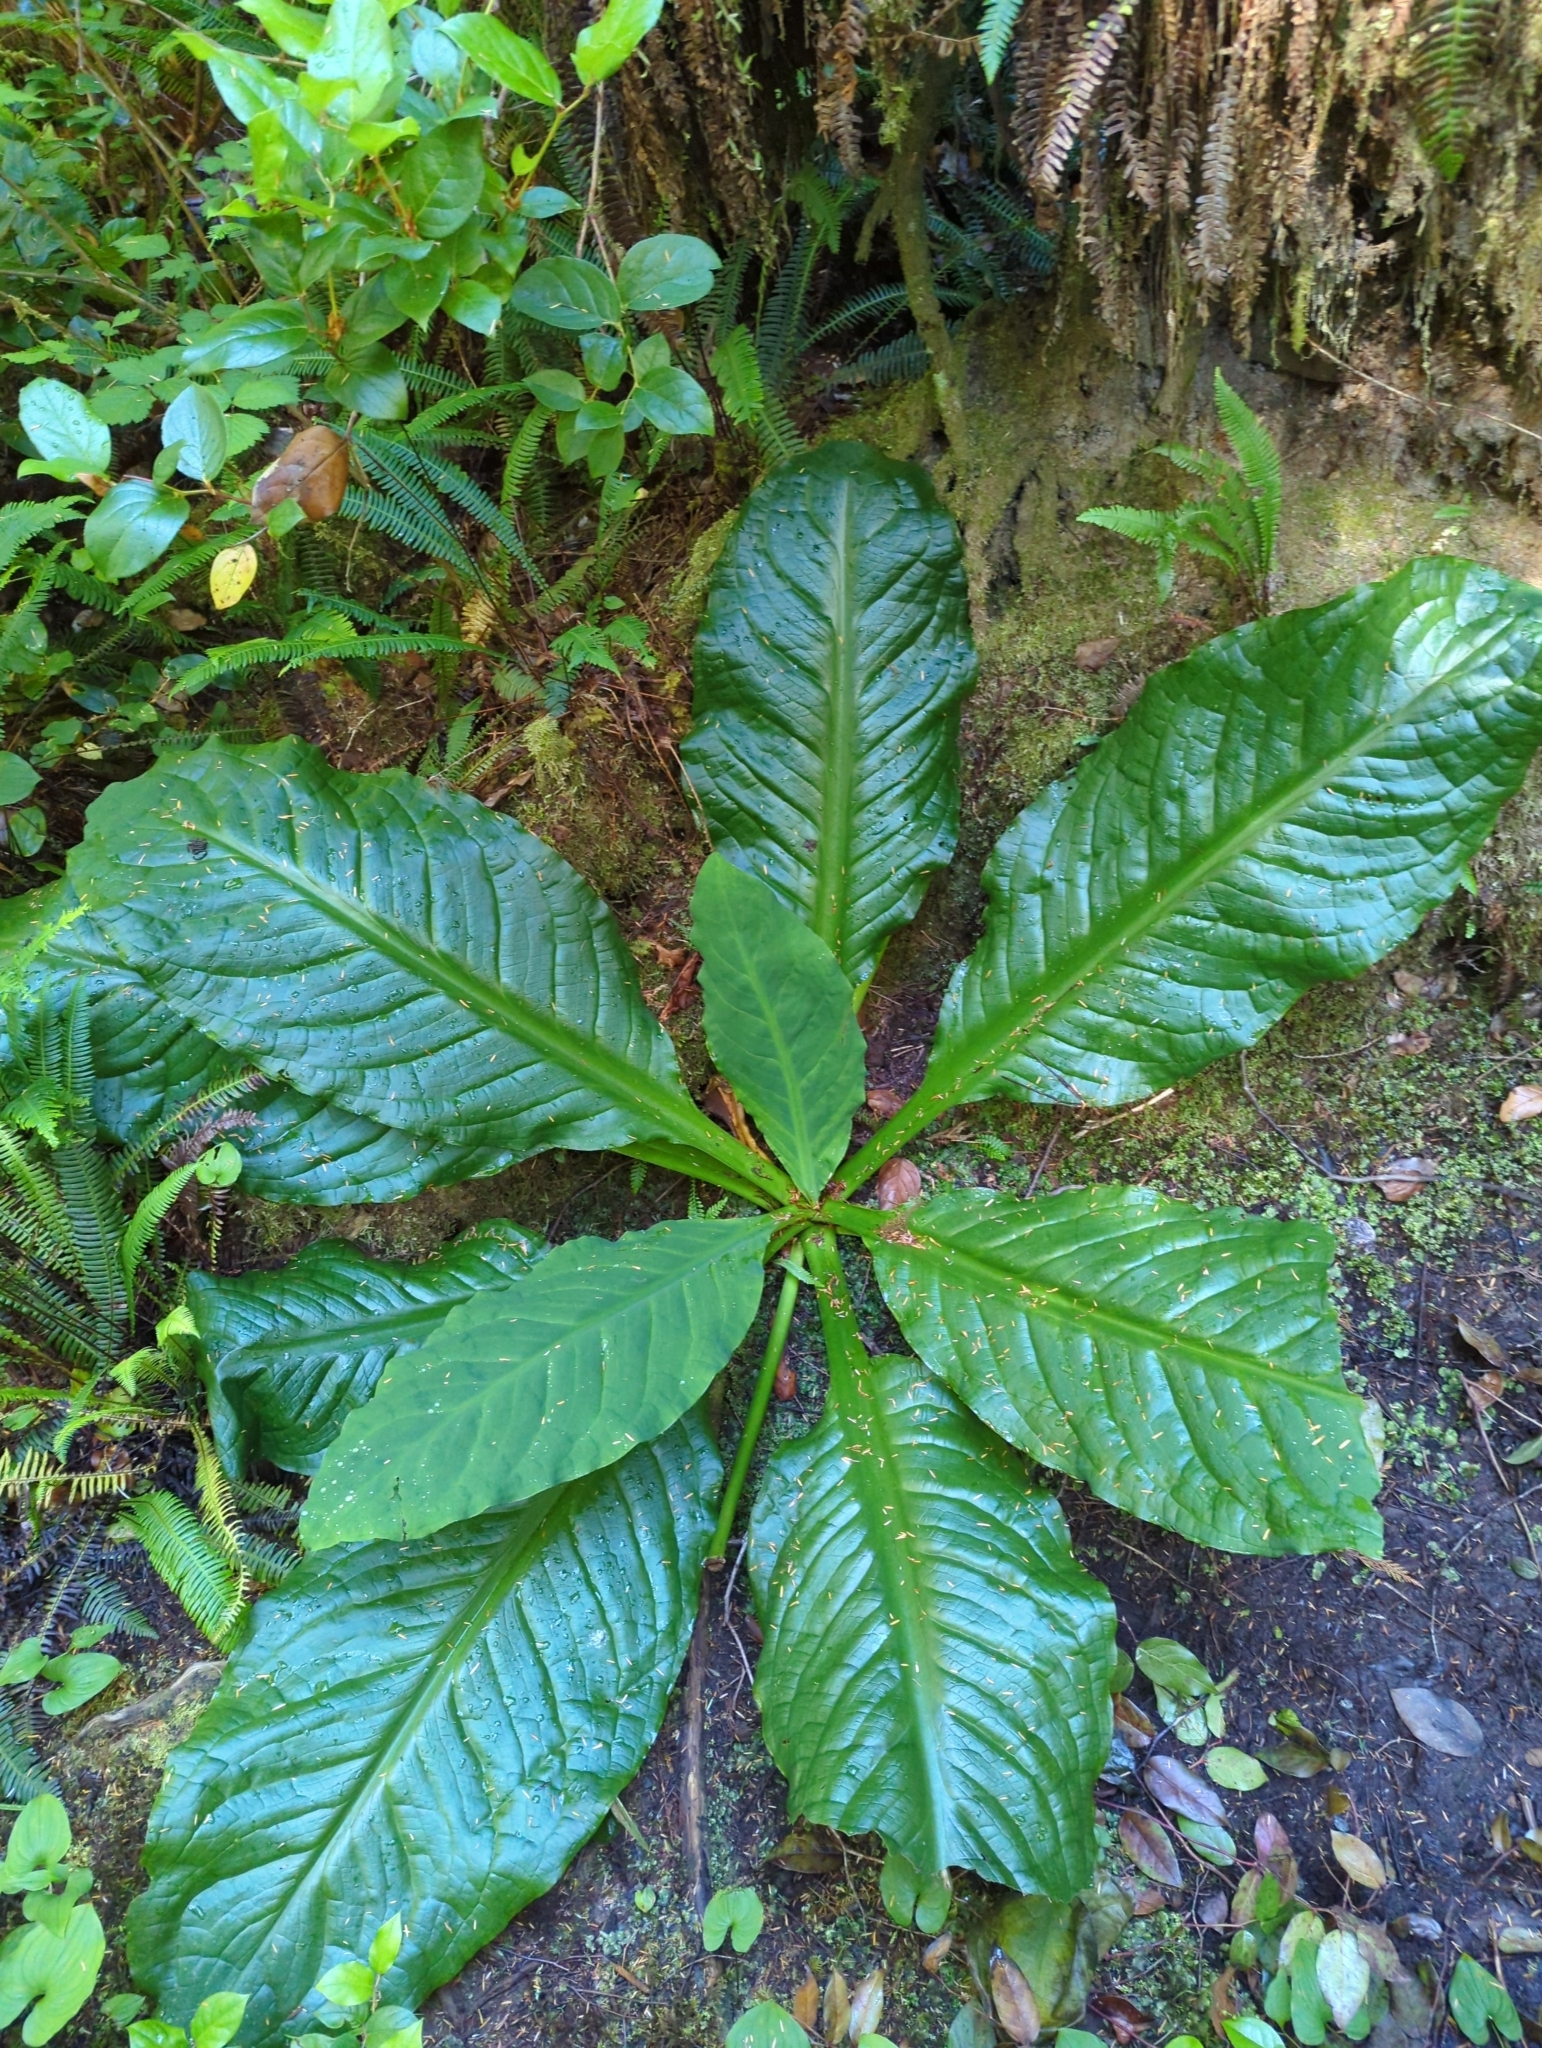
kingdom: Plantae
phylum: Tracheophyta
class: Liliopsida
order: Alismatales
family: Araceae
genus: Lysichiton
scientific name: Lysichiton americanus
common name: American skunk cabbage
